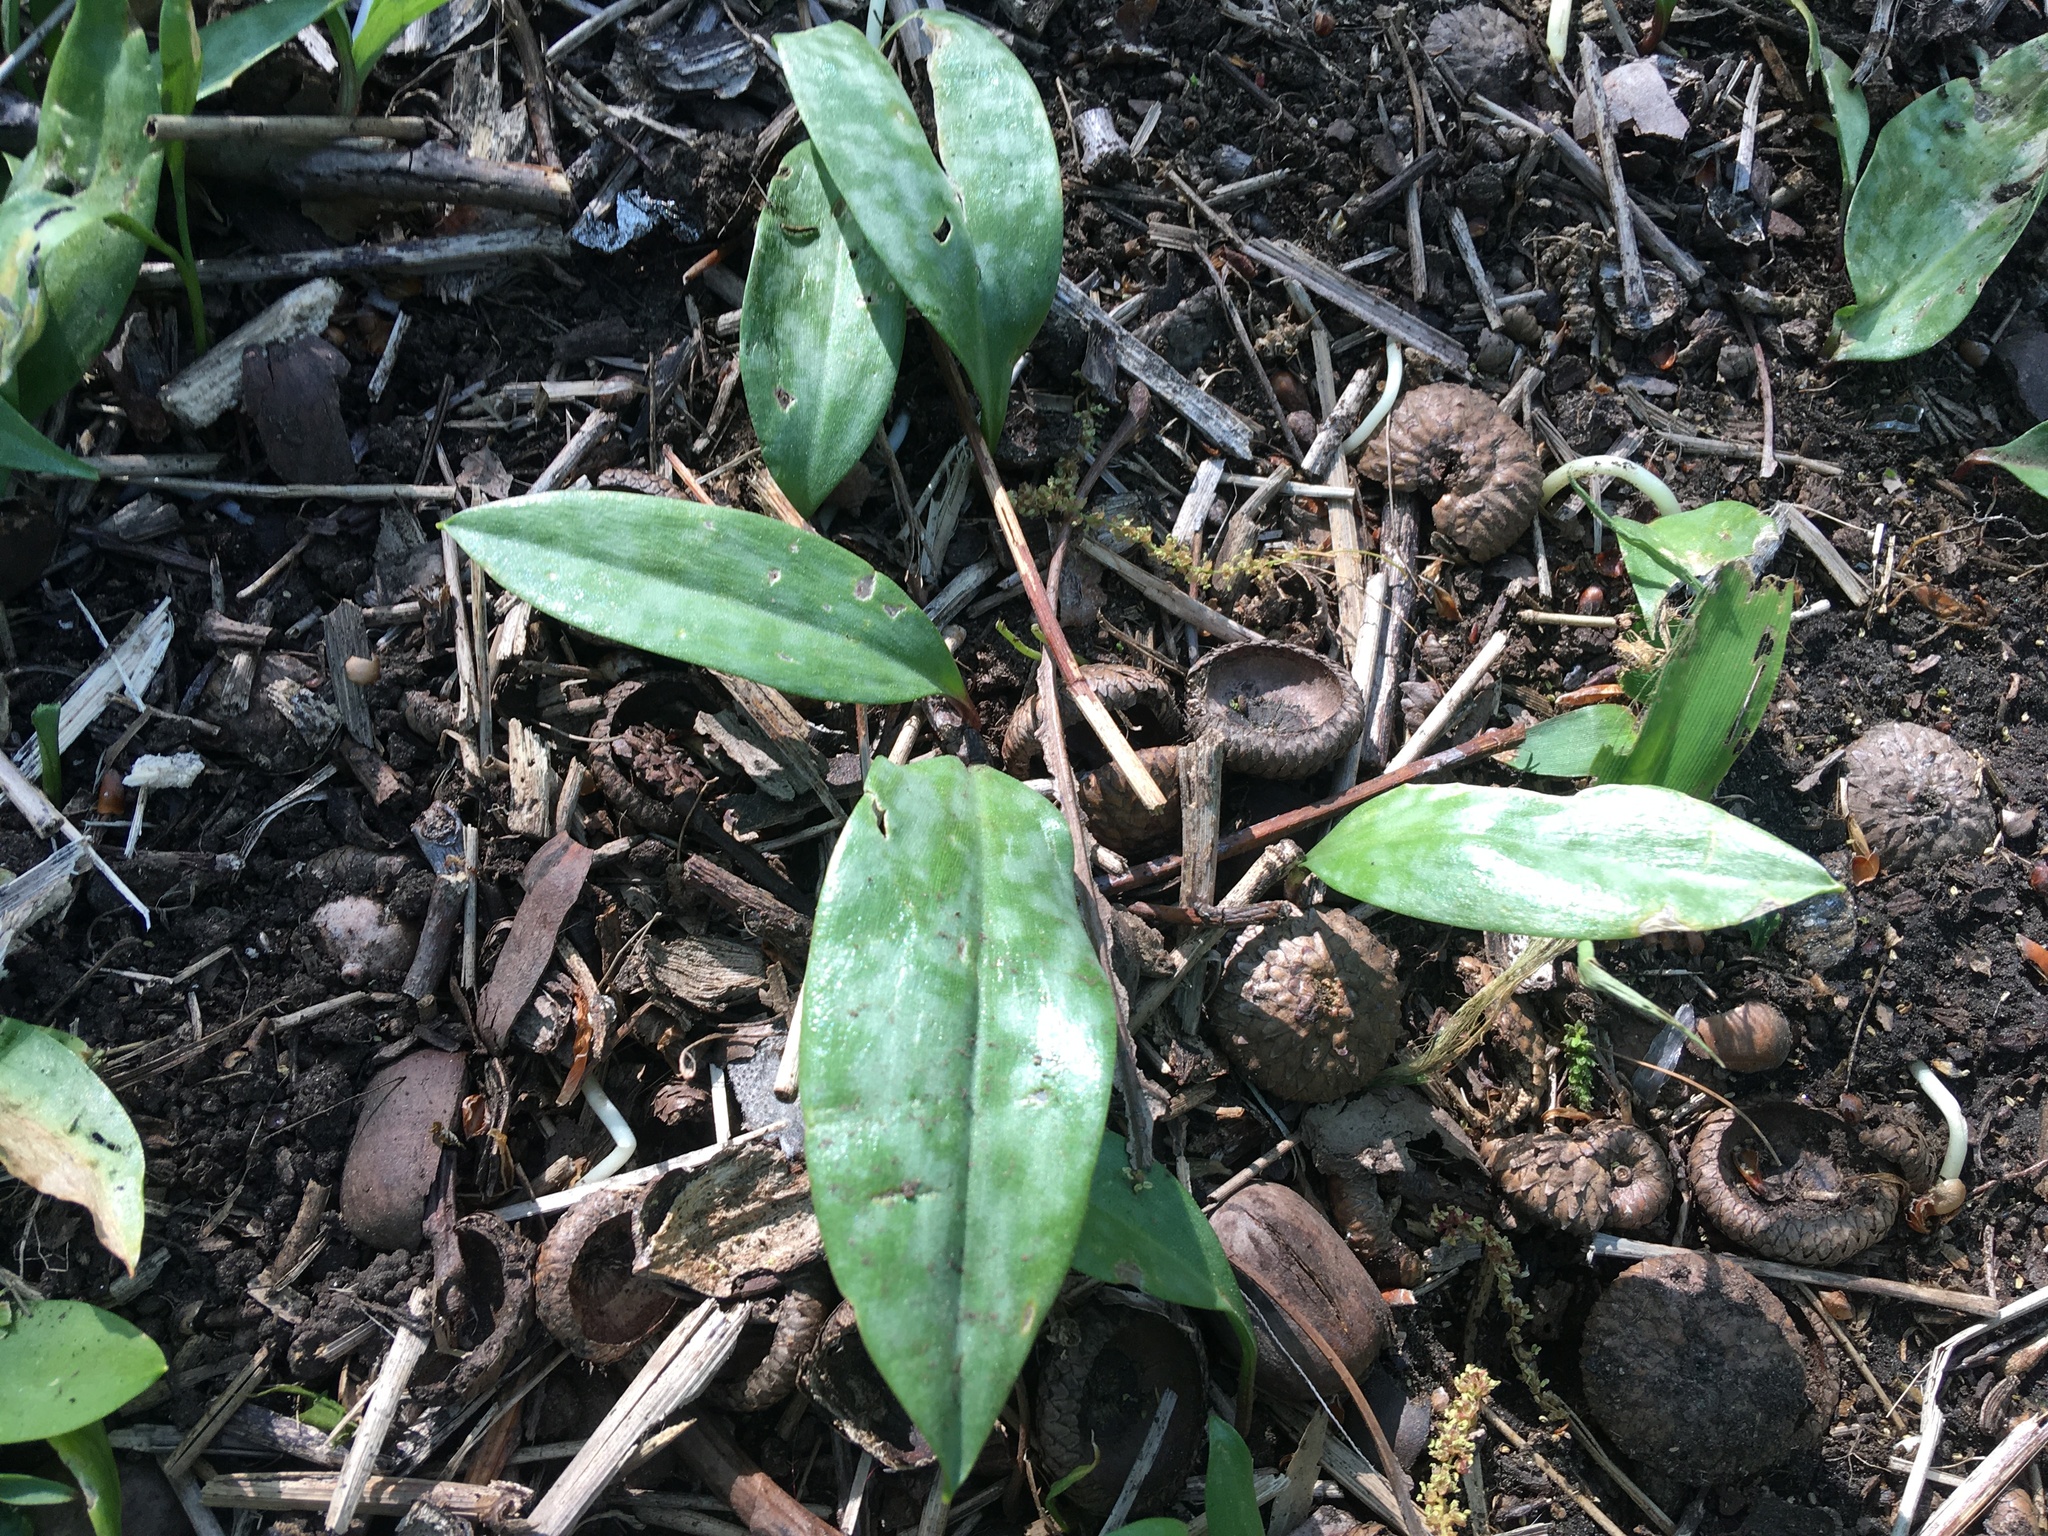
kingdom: Plantae
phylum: Tracheophyta
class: Liliopsida
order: Liliales
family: Liliaceae
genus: Erythronium
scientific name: Erythronium americanum
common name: Yellow adder's-tongue
